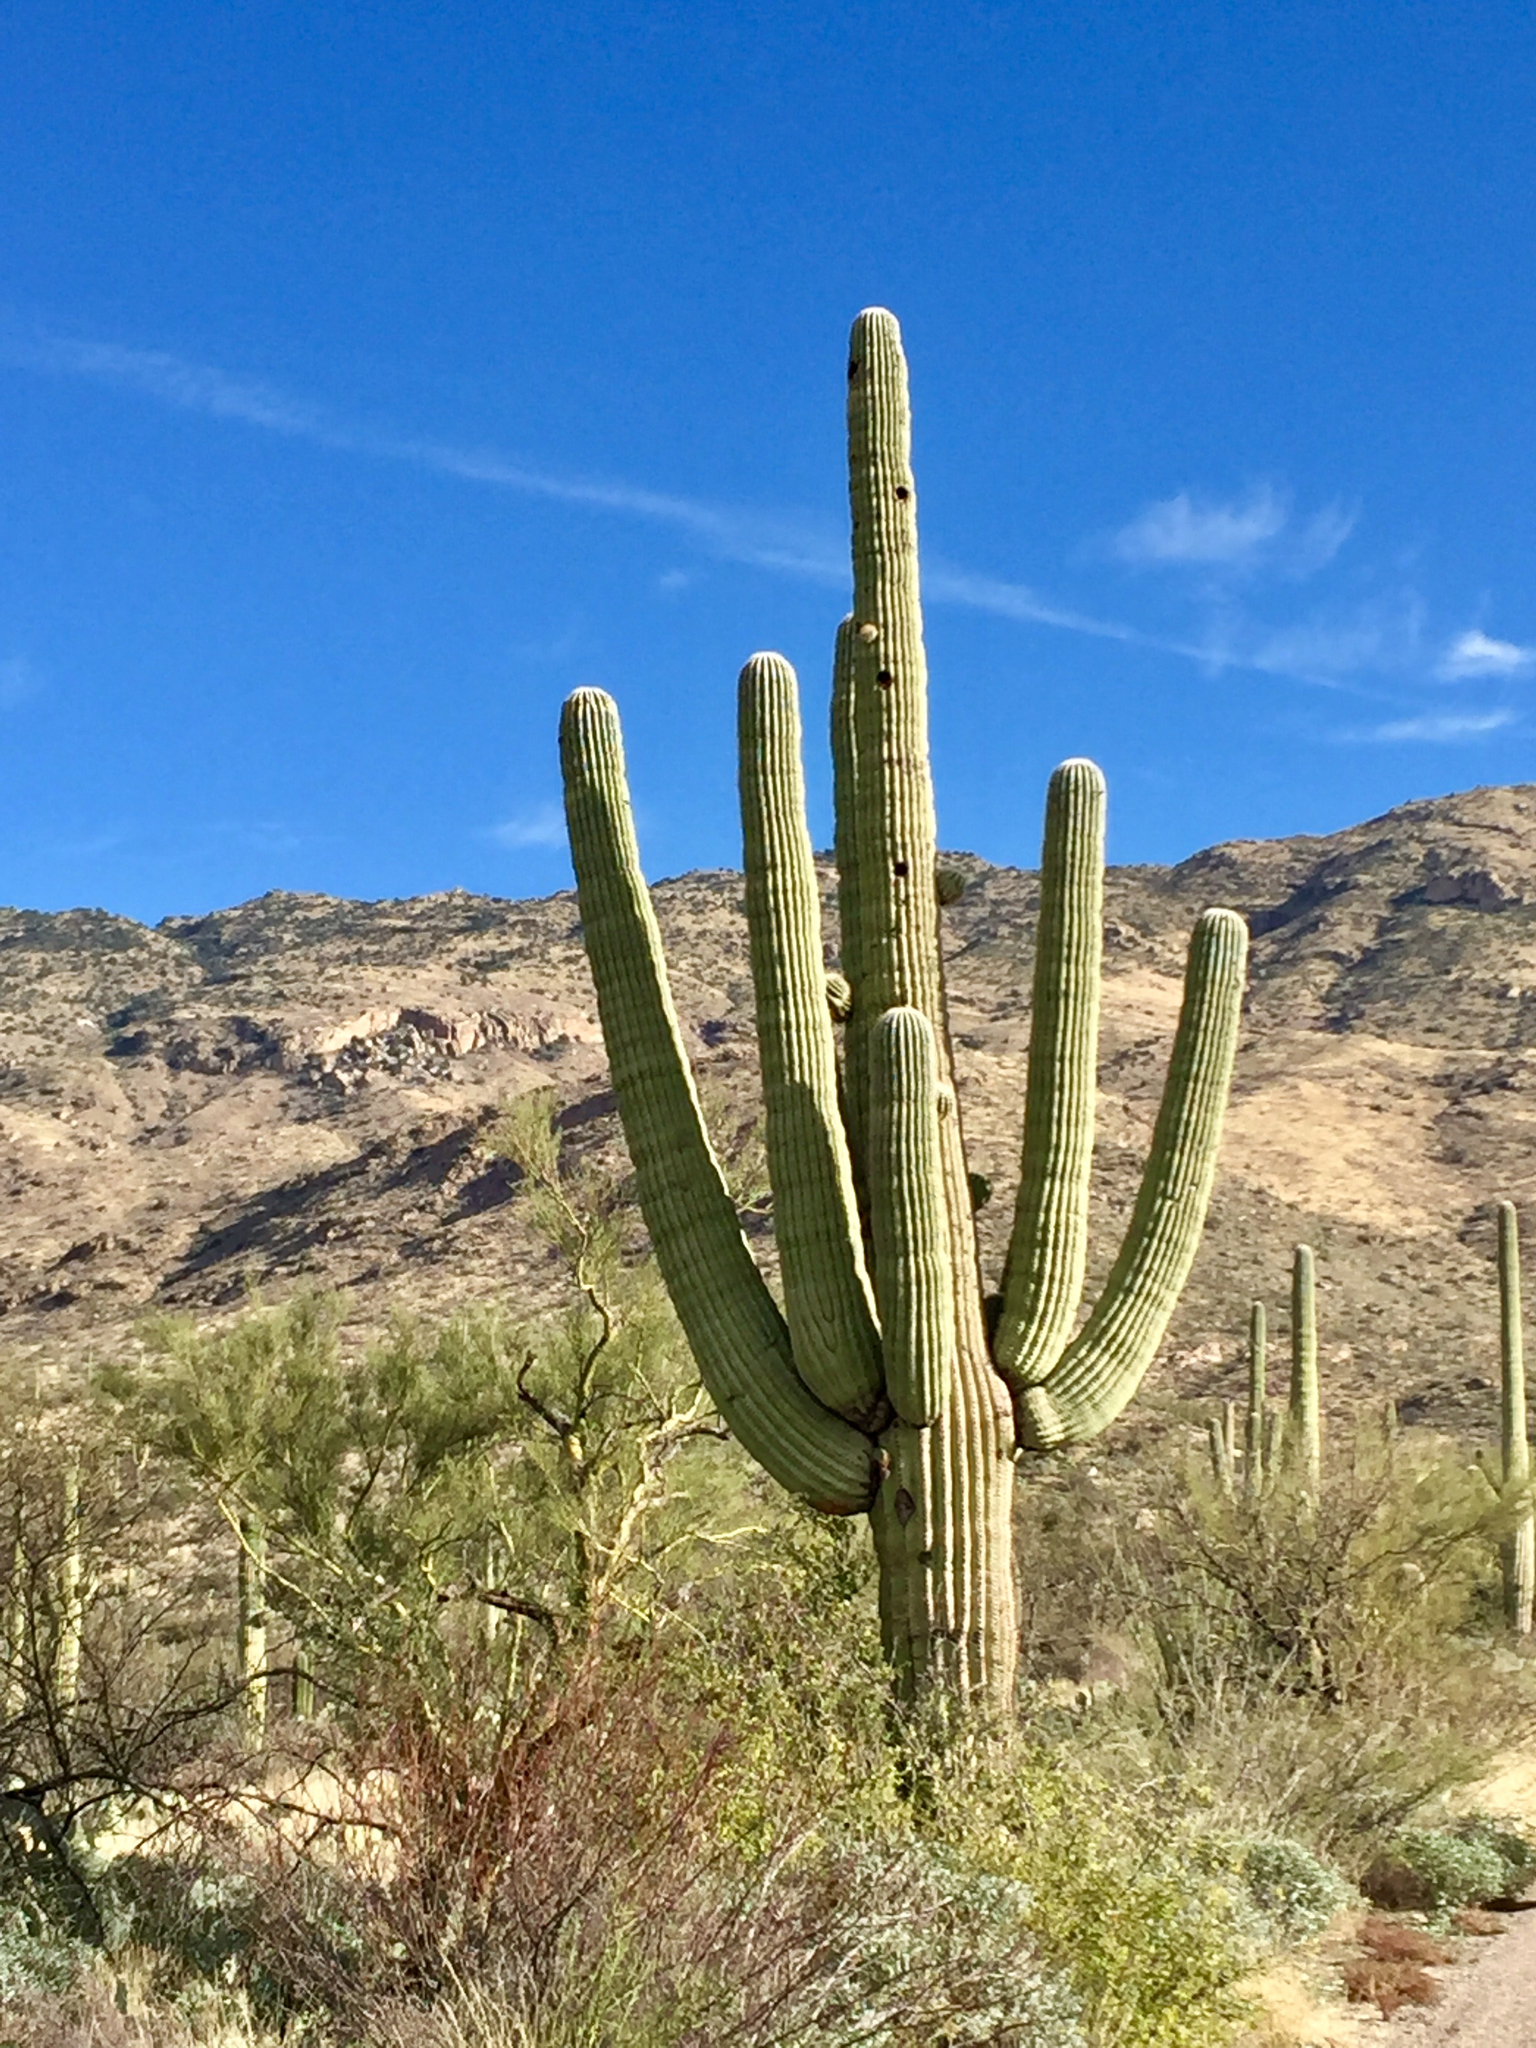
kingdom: Plantae
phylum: Tracheophyta
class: Magnoliopsida
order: Caryophyllales
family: Cactaceae
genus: Carnegiea
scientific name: Carnegiea gigantea
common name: Saguaro
